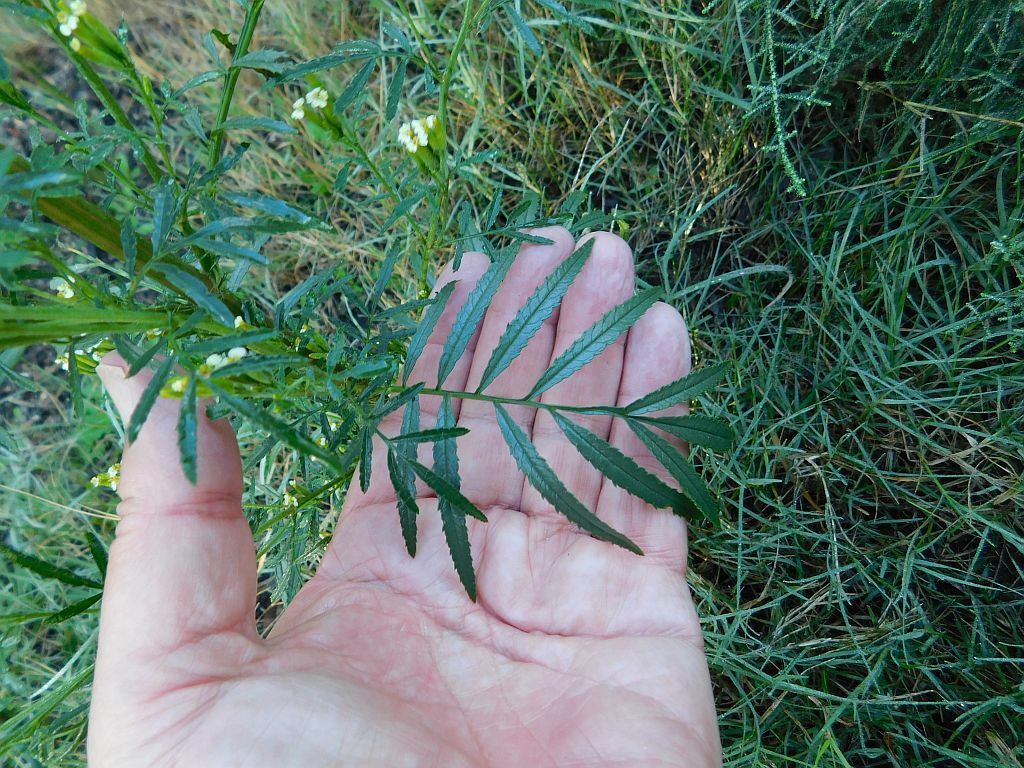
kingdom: Plantae
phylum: Tracheophyta
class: Magnoliopsida
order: Asterales
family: Asteraceae
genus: Tagetes
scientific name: Tagetes minuta
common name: Muster john henry
